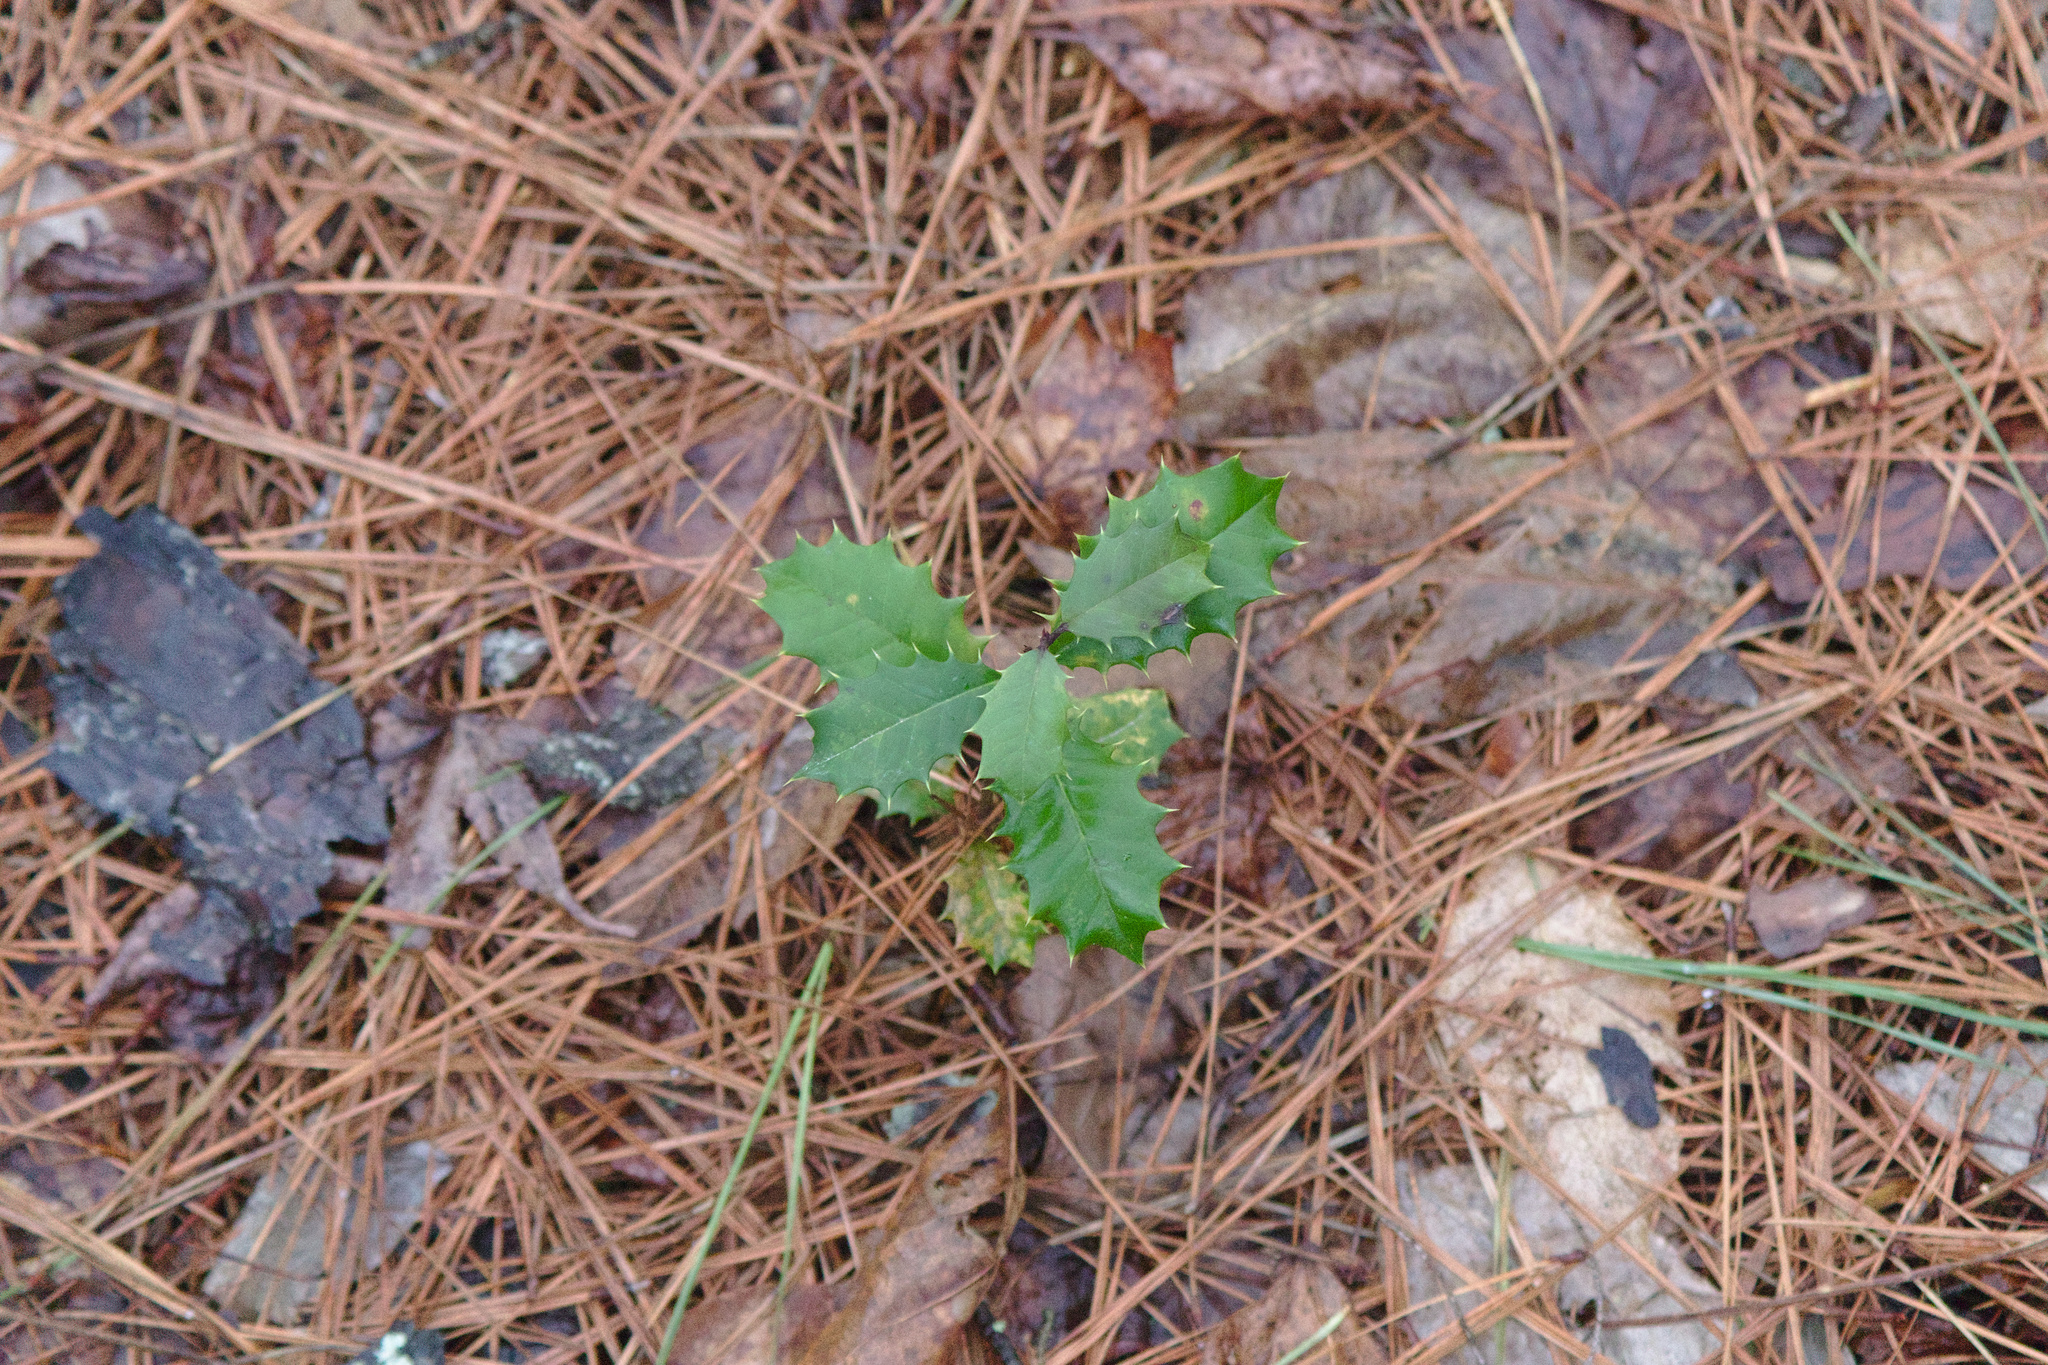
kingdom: Plantae
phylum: Tracheophyta
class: Magnoliopsida
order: Aquifoliales
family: Aquifoliaceae
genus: Ilex
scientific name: Ilex opaca
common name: American holly
